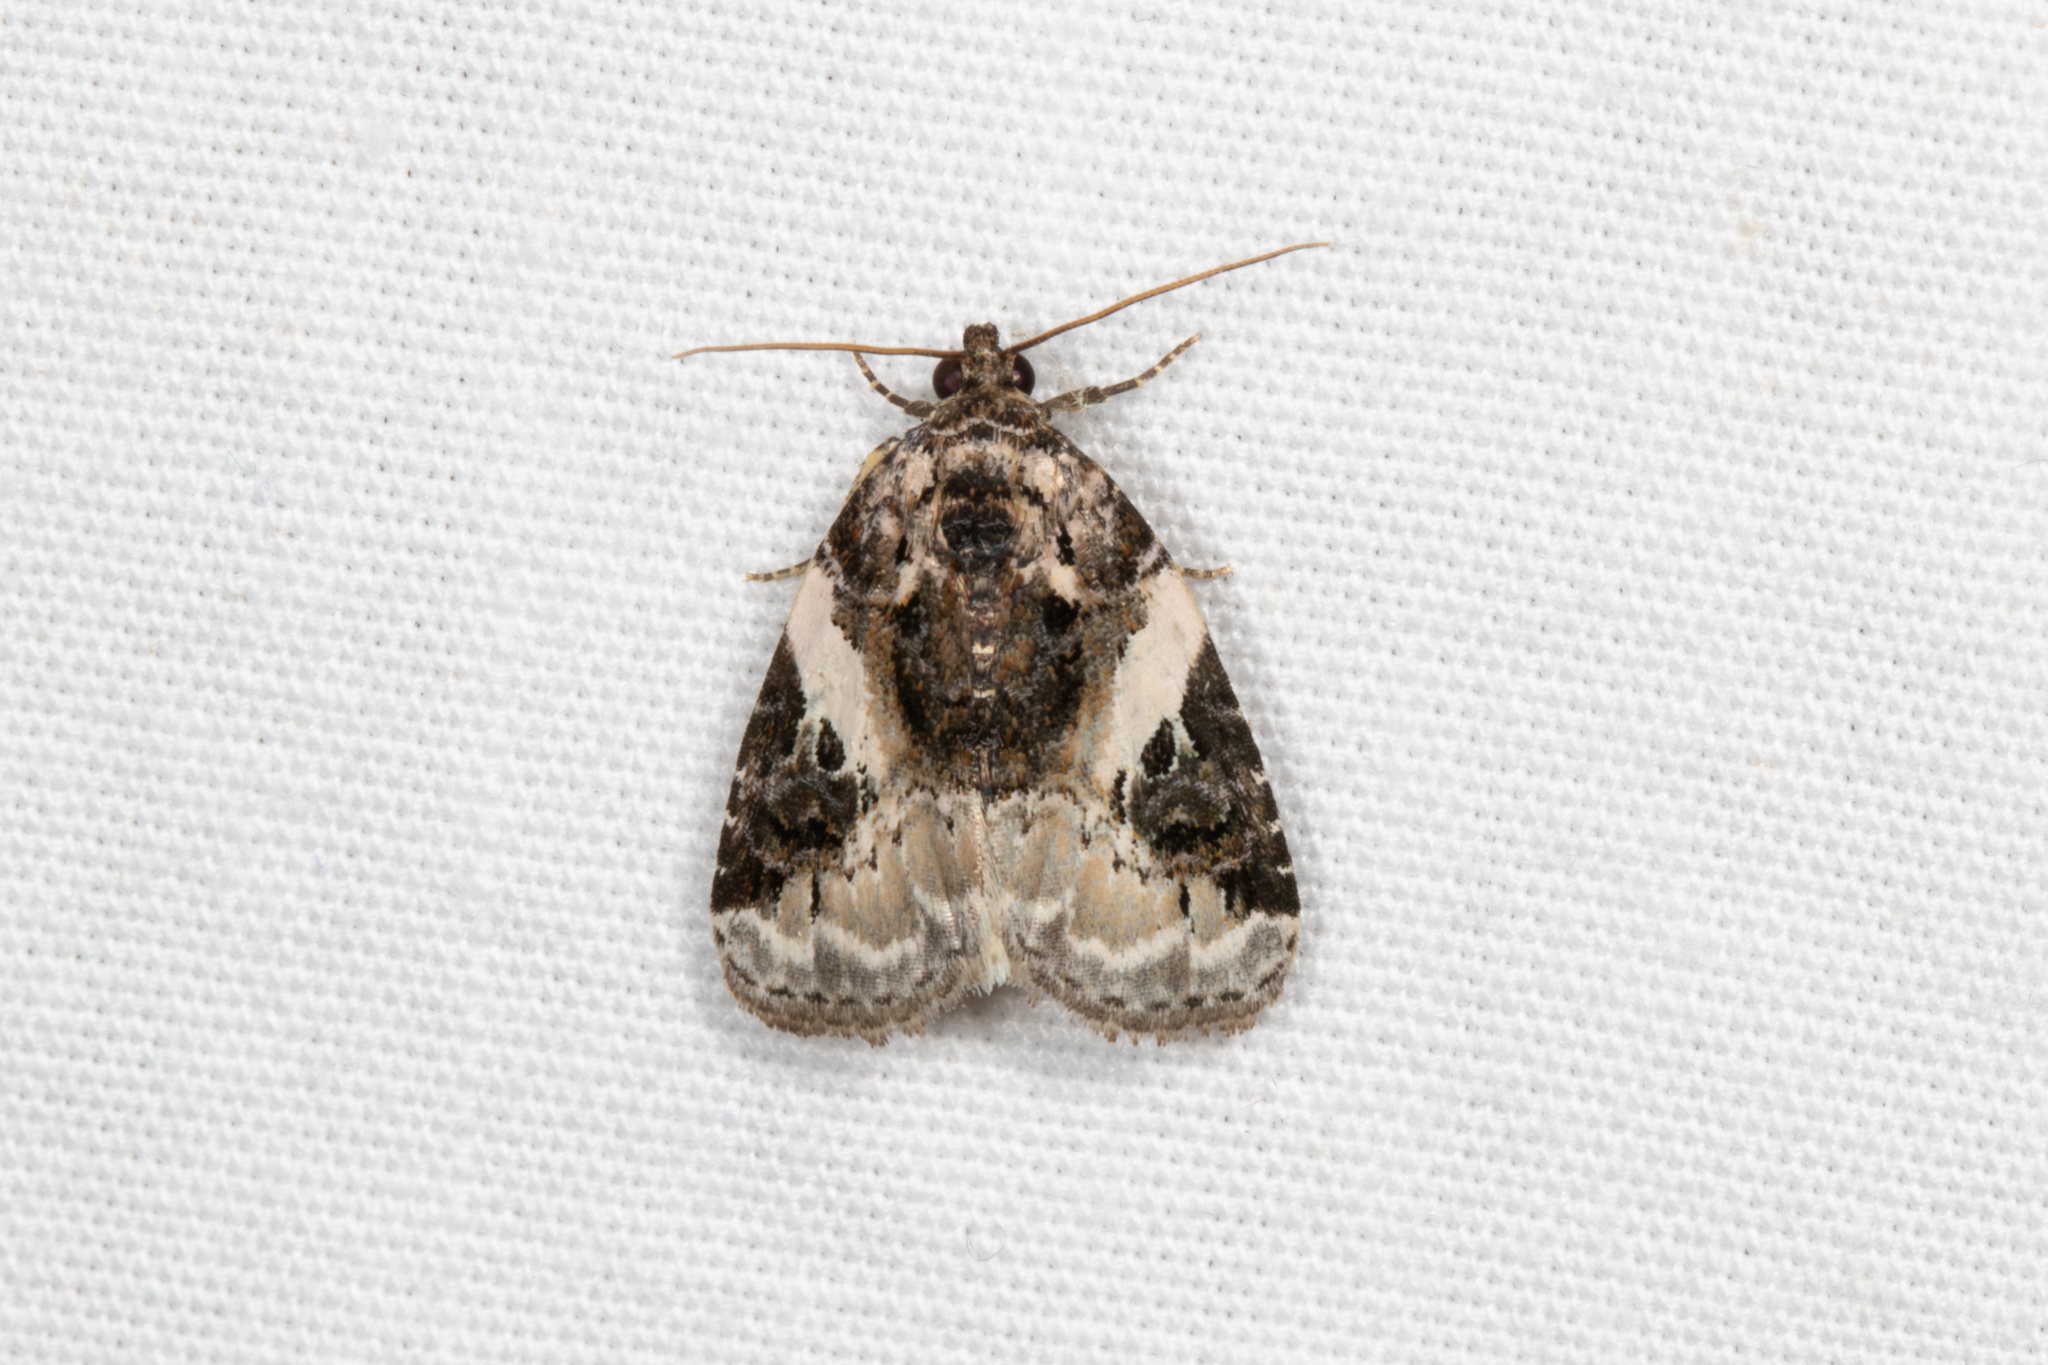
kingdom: Animalia
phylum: Arthropoda
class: Insecta
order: Lepidoptera
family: Noctuidae
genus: Pseudeustrotia
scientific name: Pseudeustrotia carneola
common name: Pink-barred lithacodia moth
